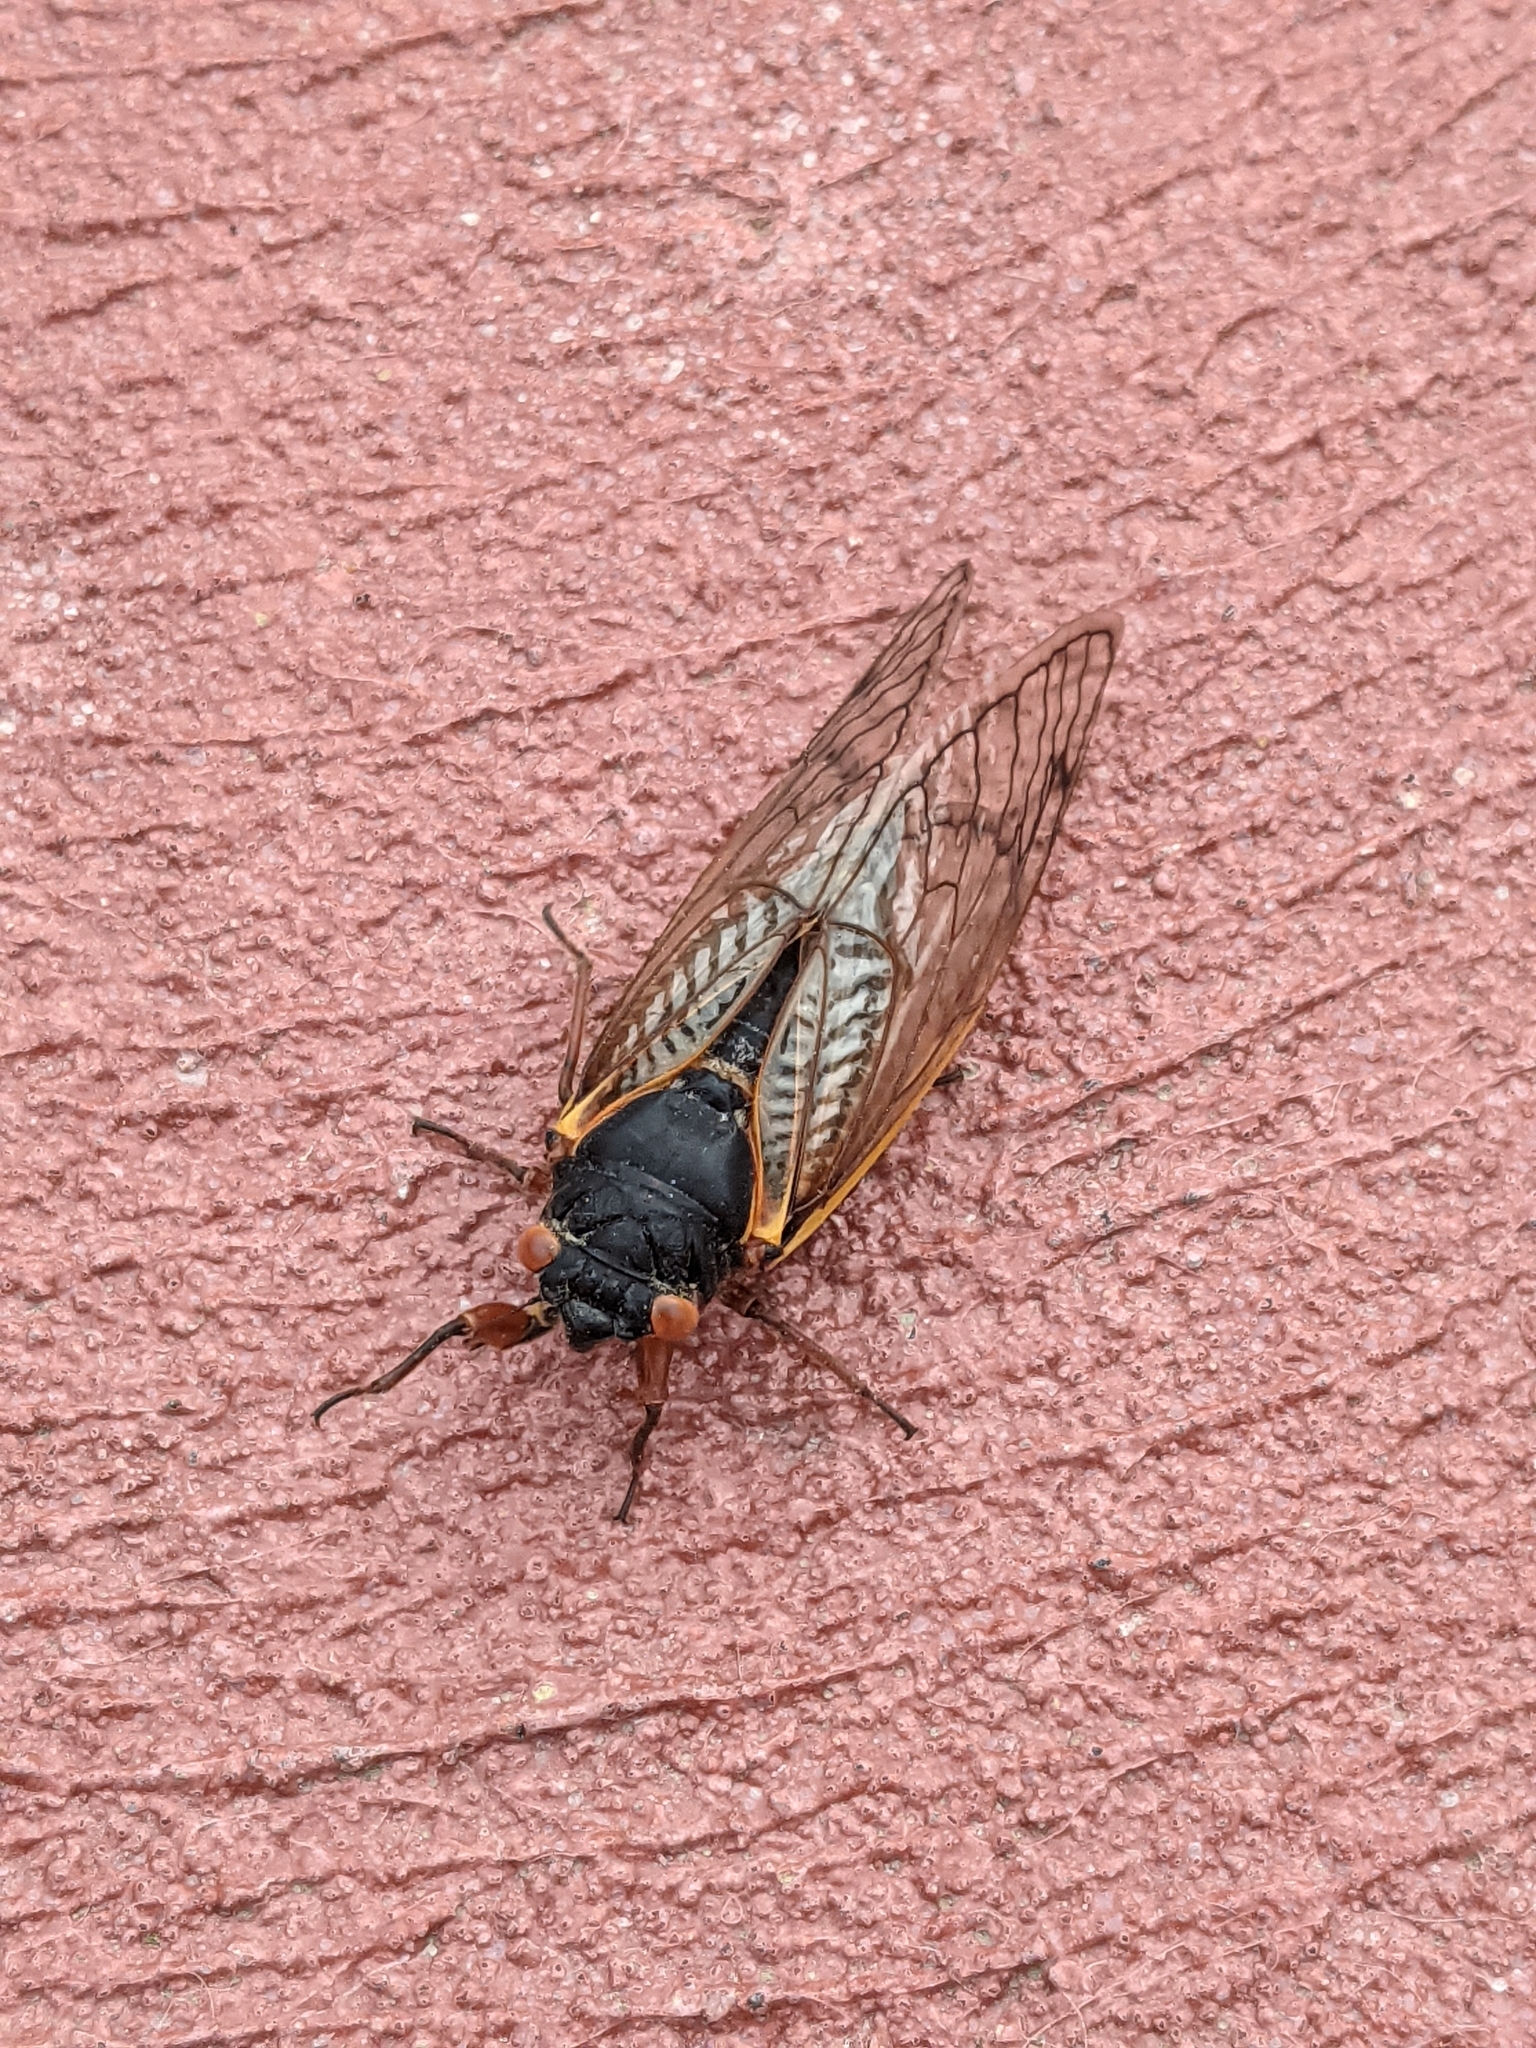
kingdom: Animalia
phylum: Arthropoda
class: Insecta
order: Hemiptera
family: Cicadidae
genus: Magicicada
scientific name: Magicicada
